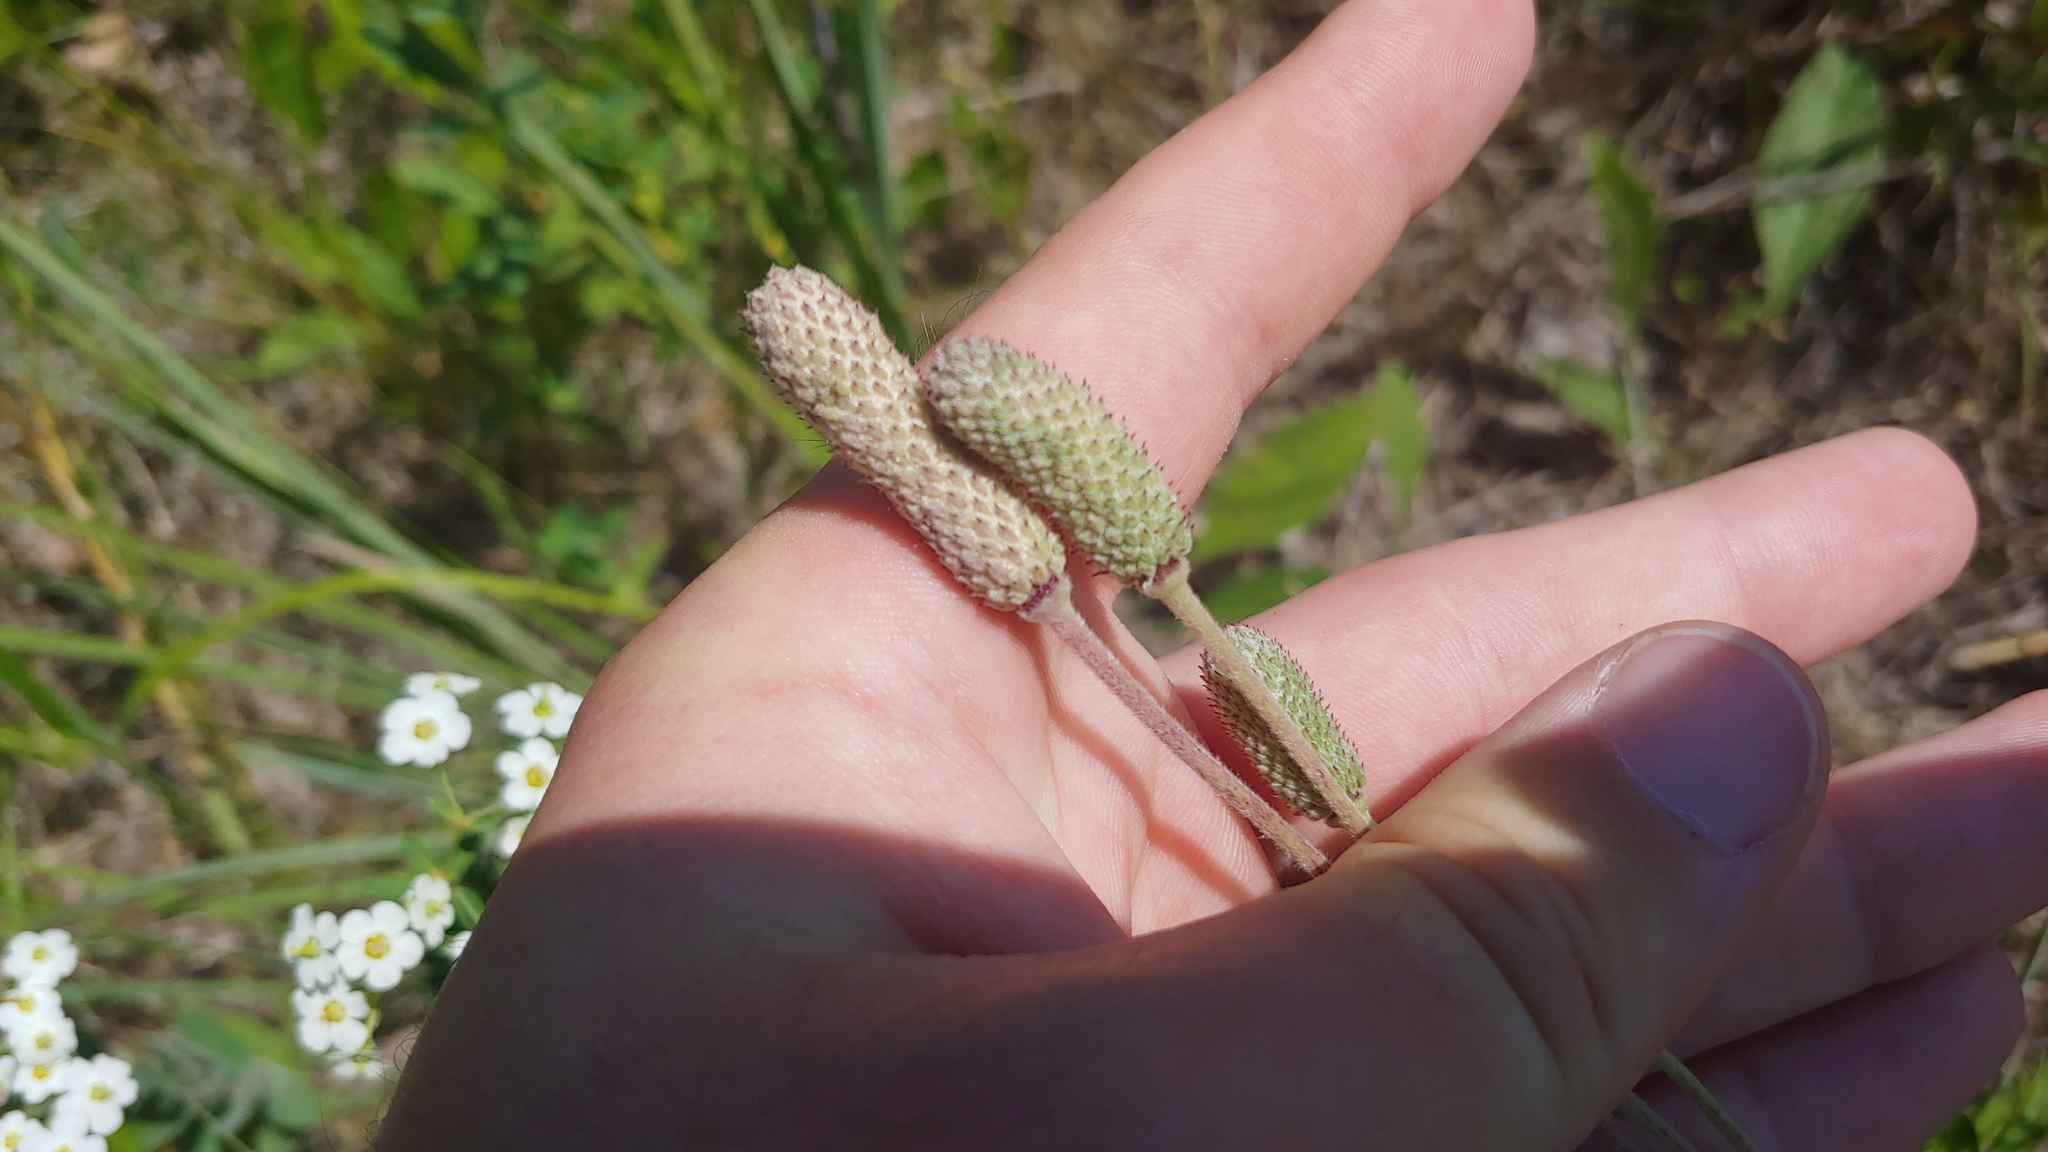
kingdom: Plantae
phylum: Tracheophyta
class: Magnoliopsida
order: Ranunculales
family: Ranunculaceae
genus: Anemone
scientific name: Anemone cylindrica
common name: Candle anemone
